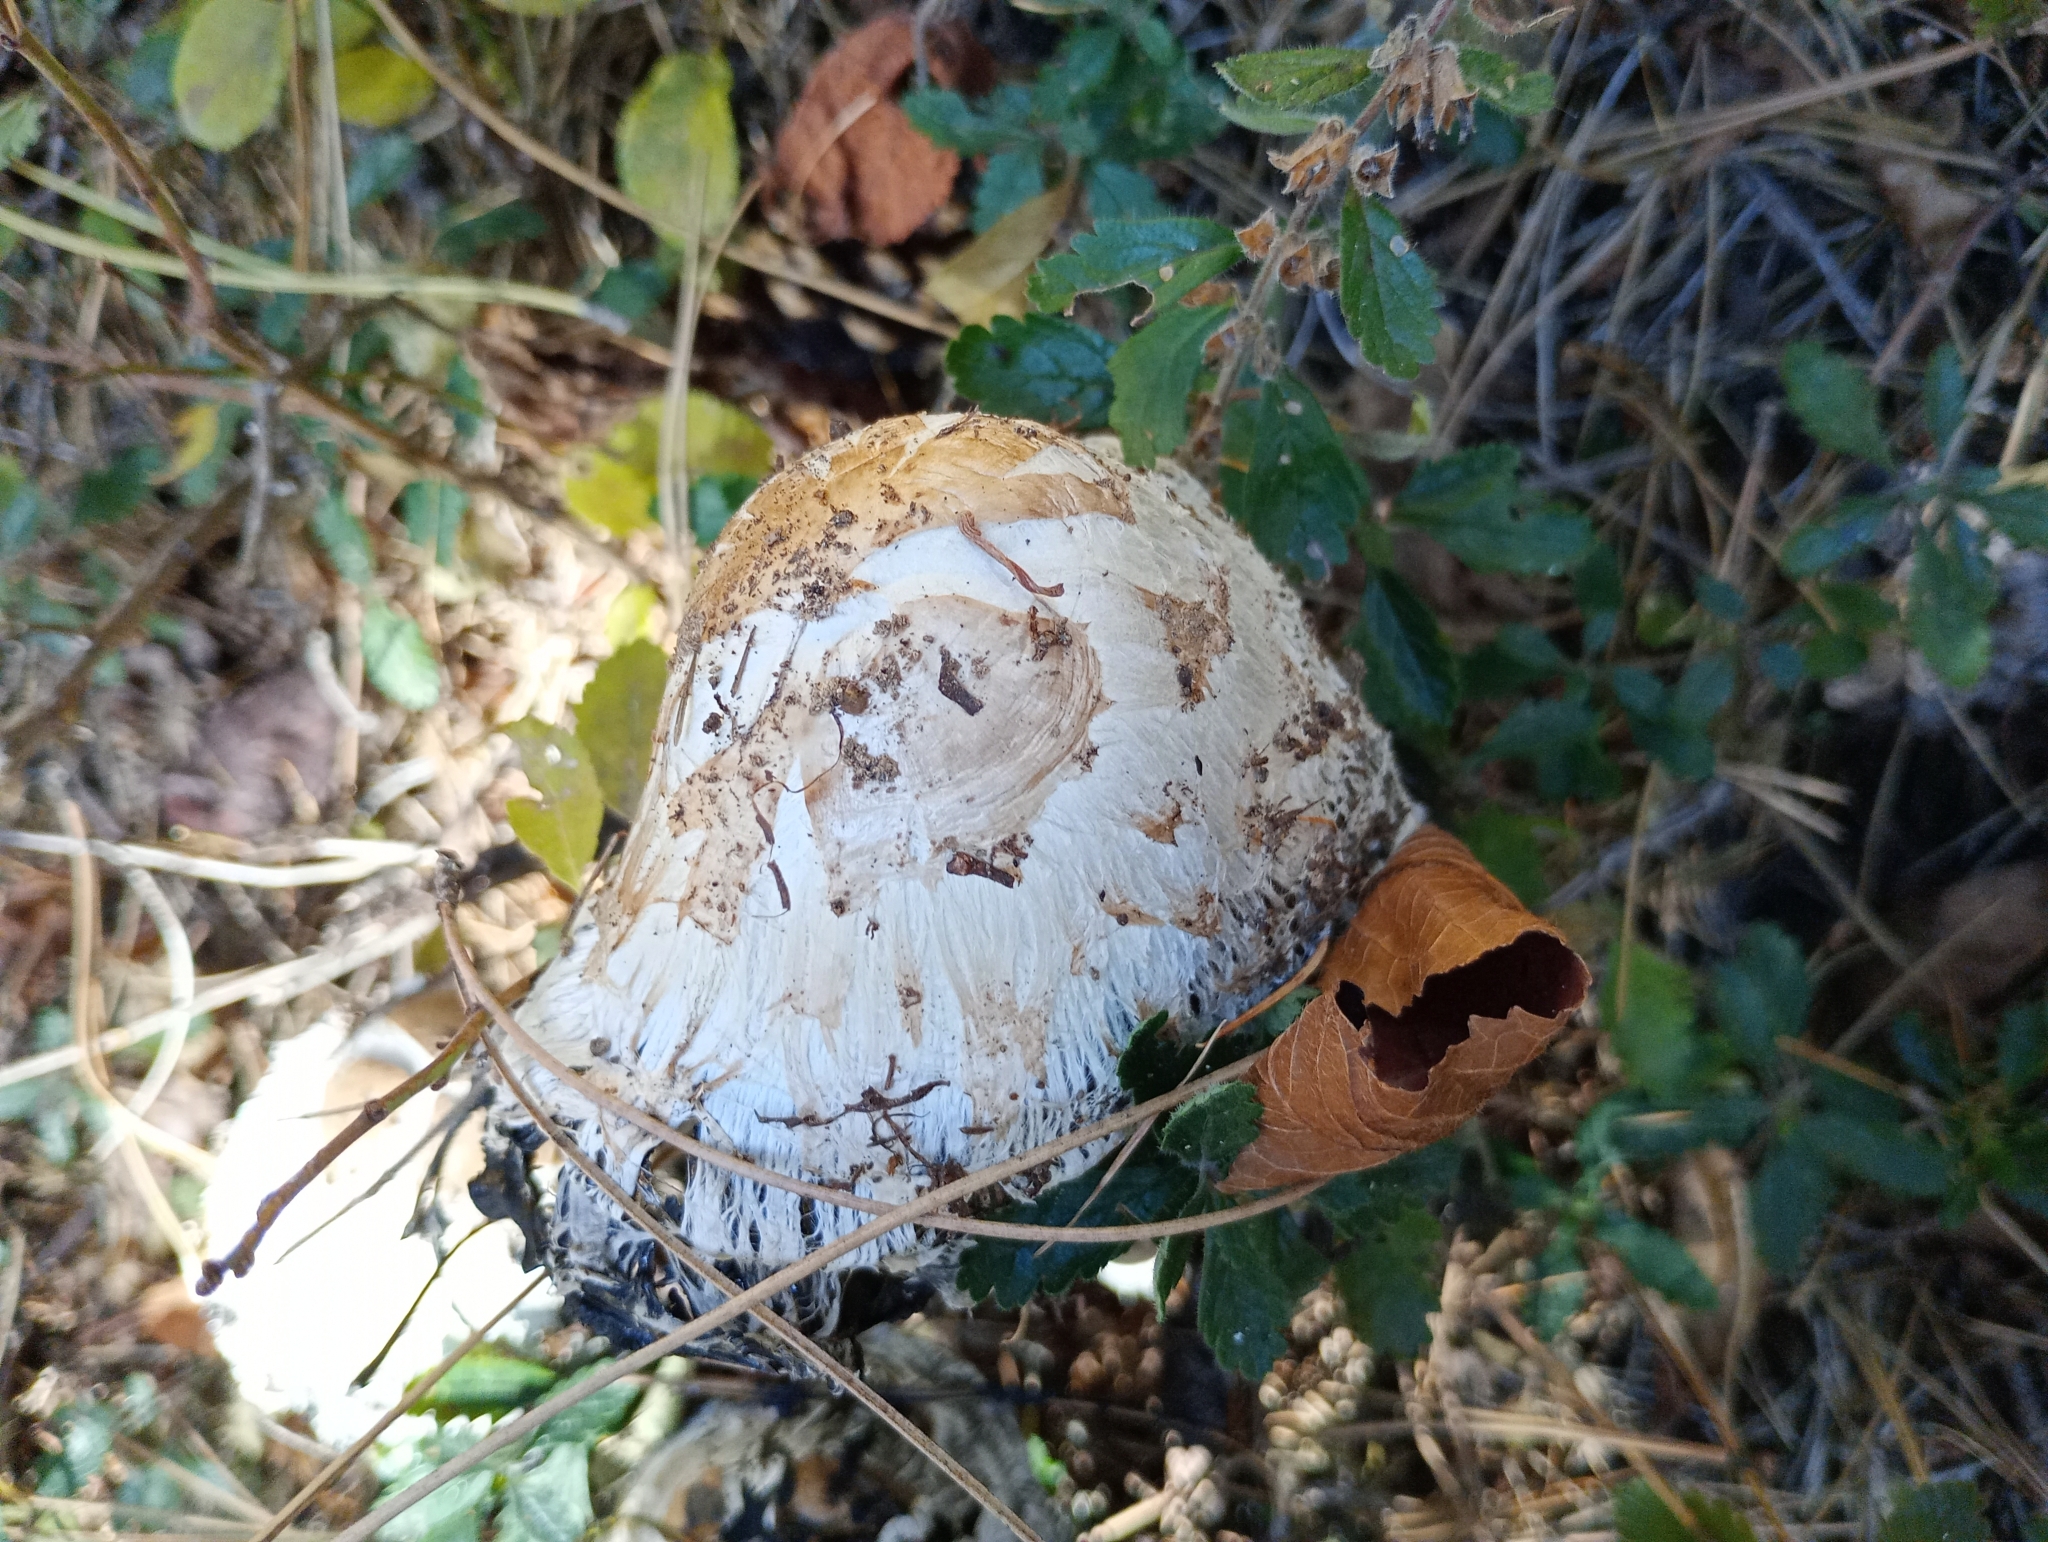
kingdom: Fungi
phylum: Basidiomycota
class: Agaricomycetes
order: Agaricales
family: Agaricaceae
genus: Coprinus
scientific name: Coprinus comatus
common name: Lawyer's wig
